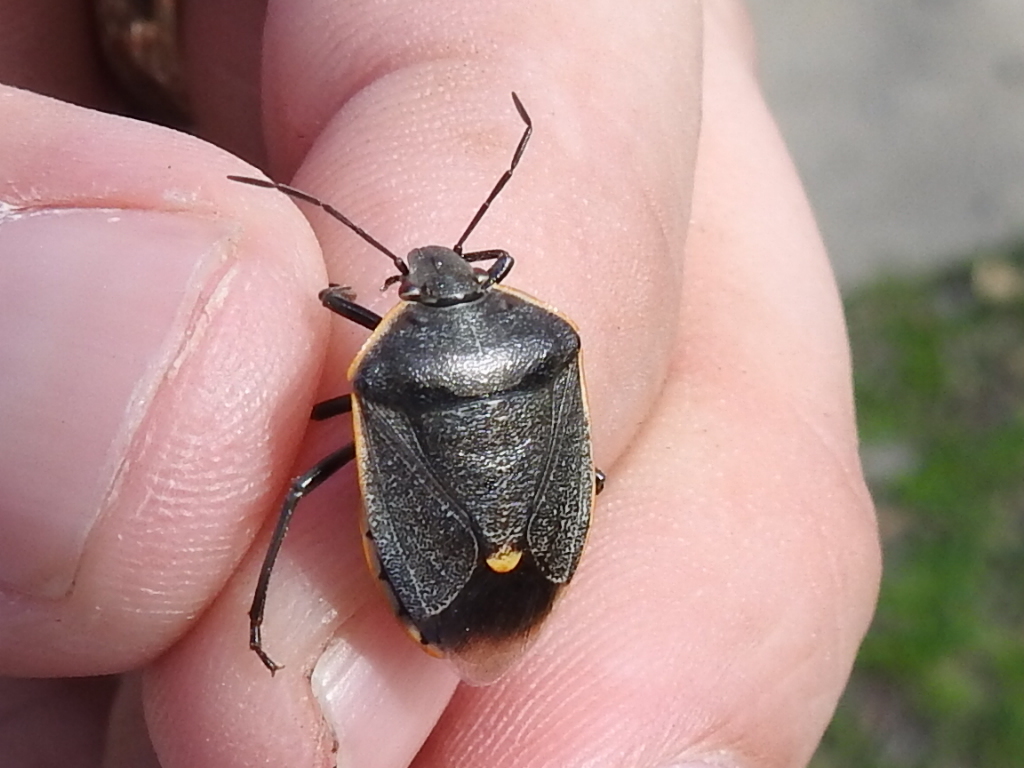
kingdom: Animalia
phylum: Arthropoda
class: Insecta
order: Hemiptera
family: Pentatomidae
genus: Chlorochroa
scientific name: Chlorochroa ligata
